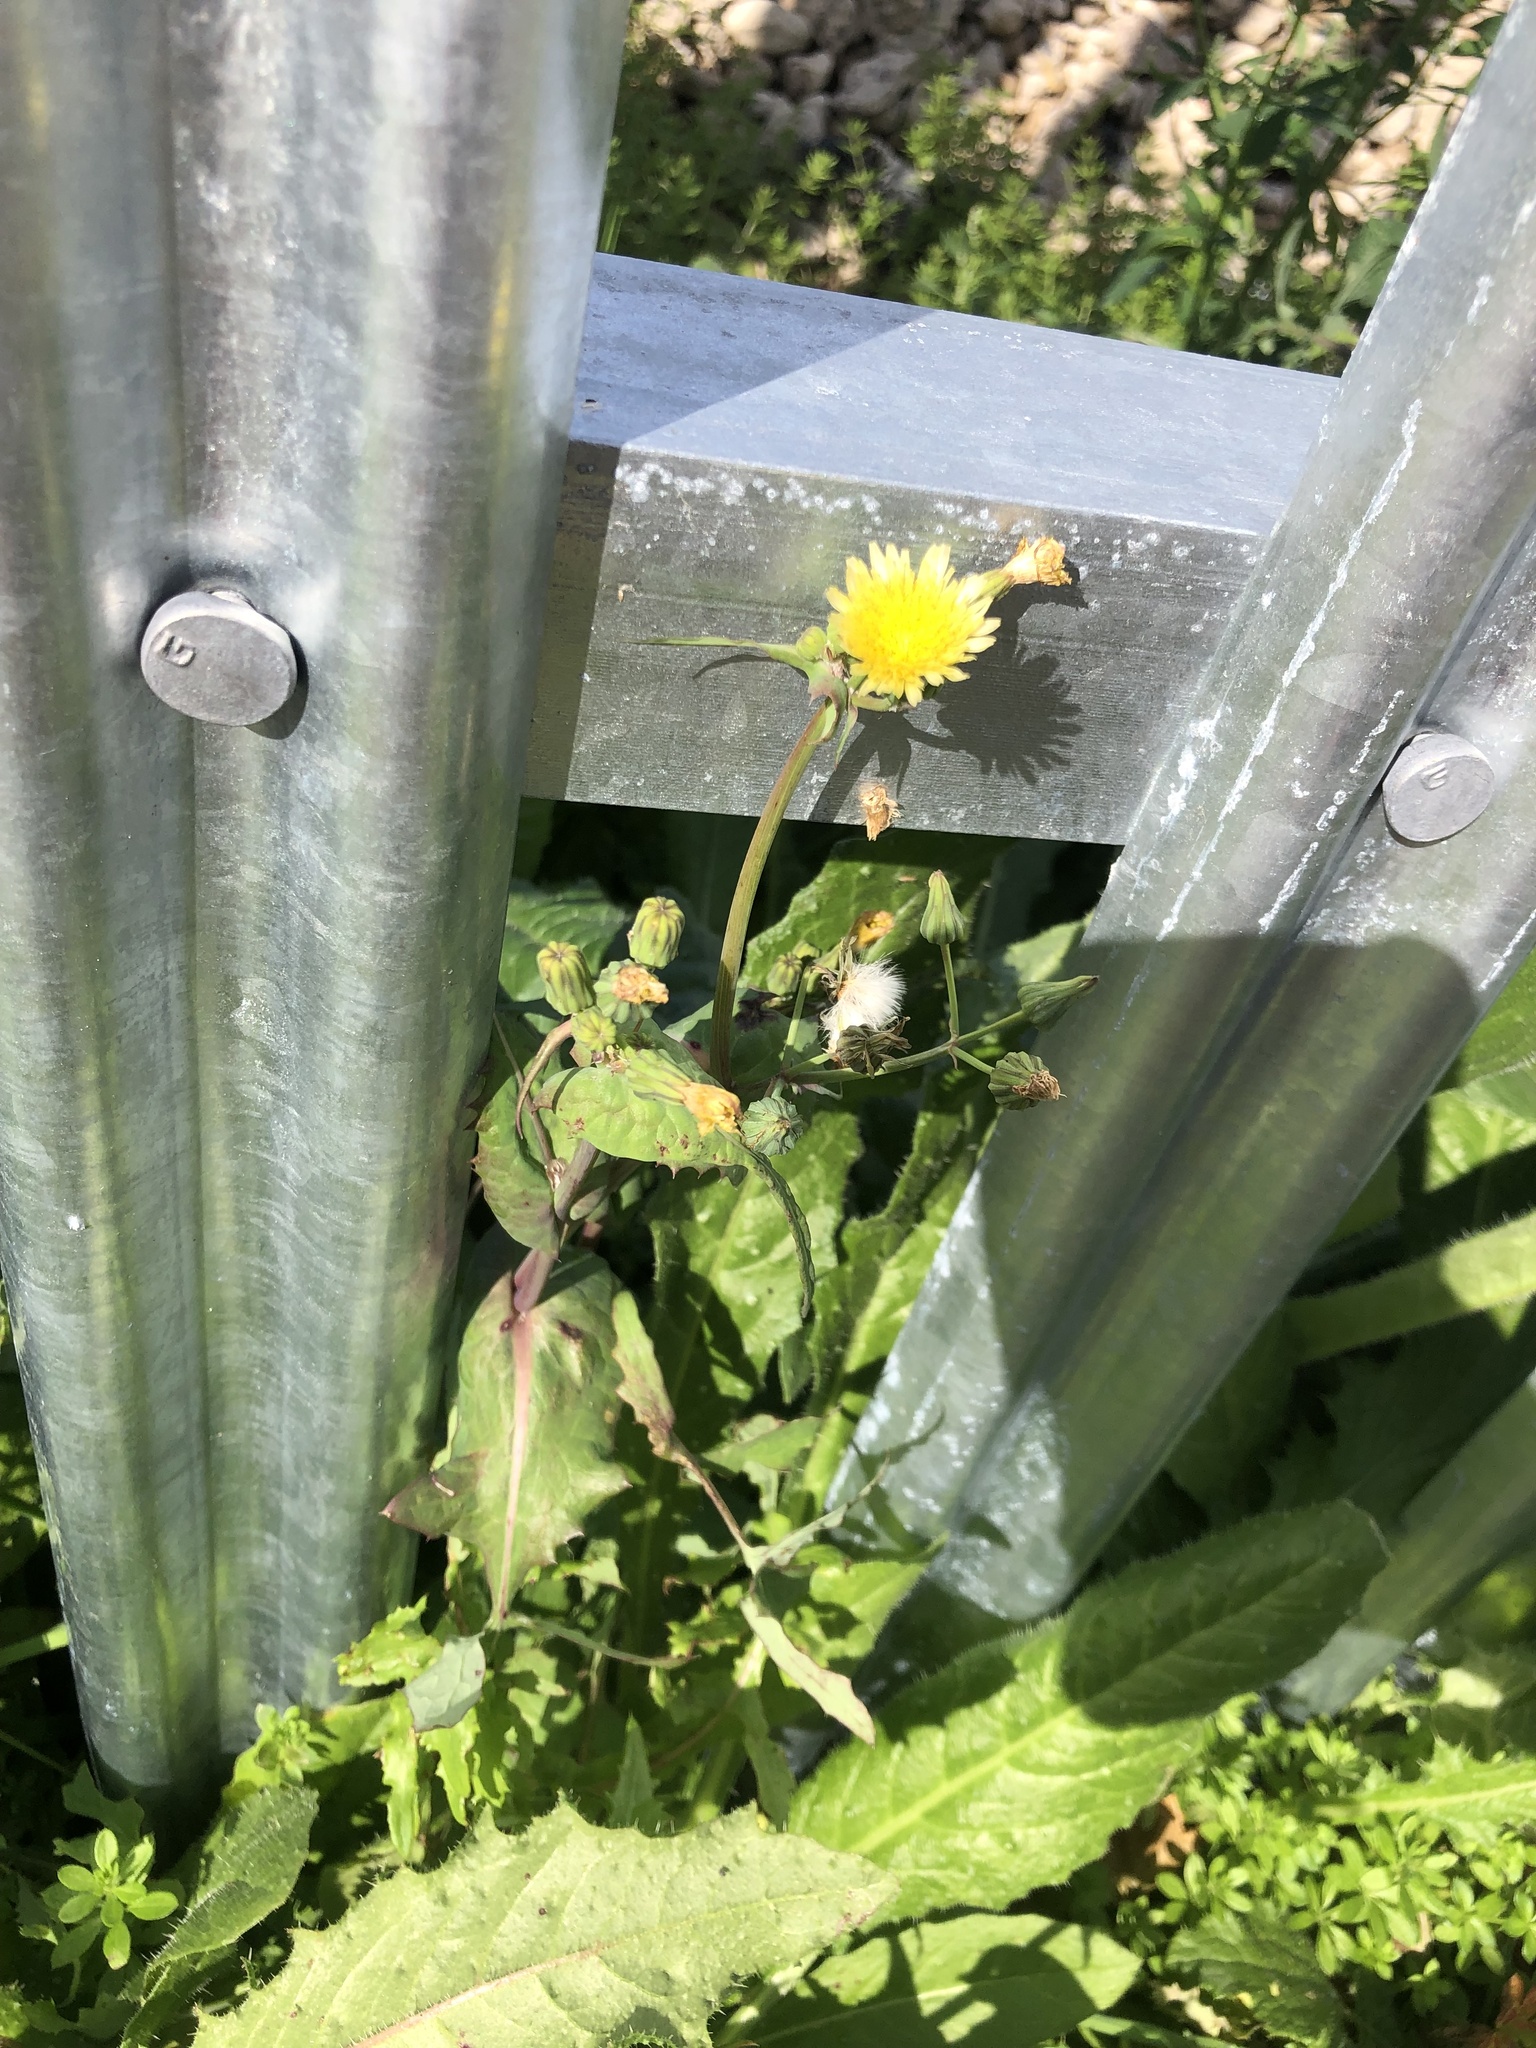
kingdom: Plantae
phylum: Tracheophyta
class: Magnoliopsida
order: Asterales
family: Asteraceae
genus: Sonchus
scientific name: Sonchus oleraceus
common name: Common sowthistle
